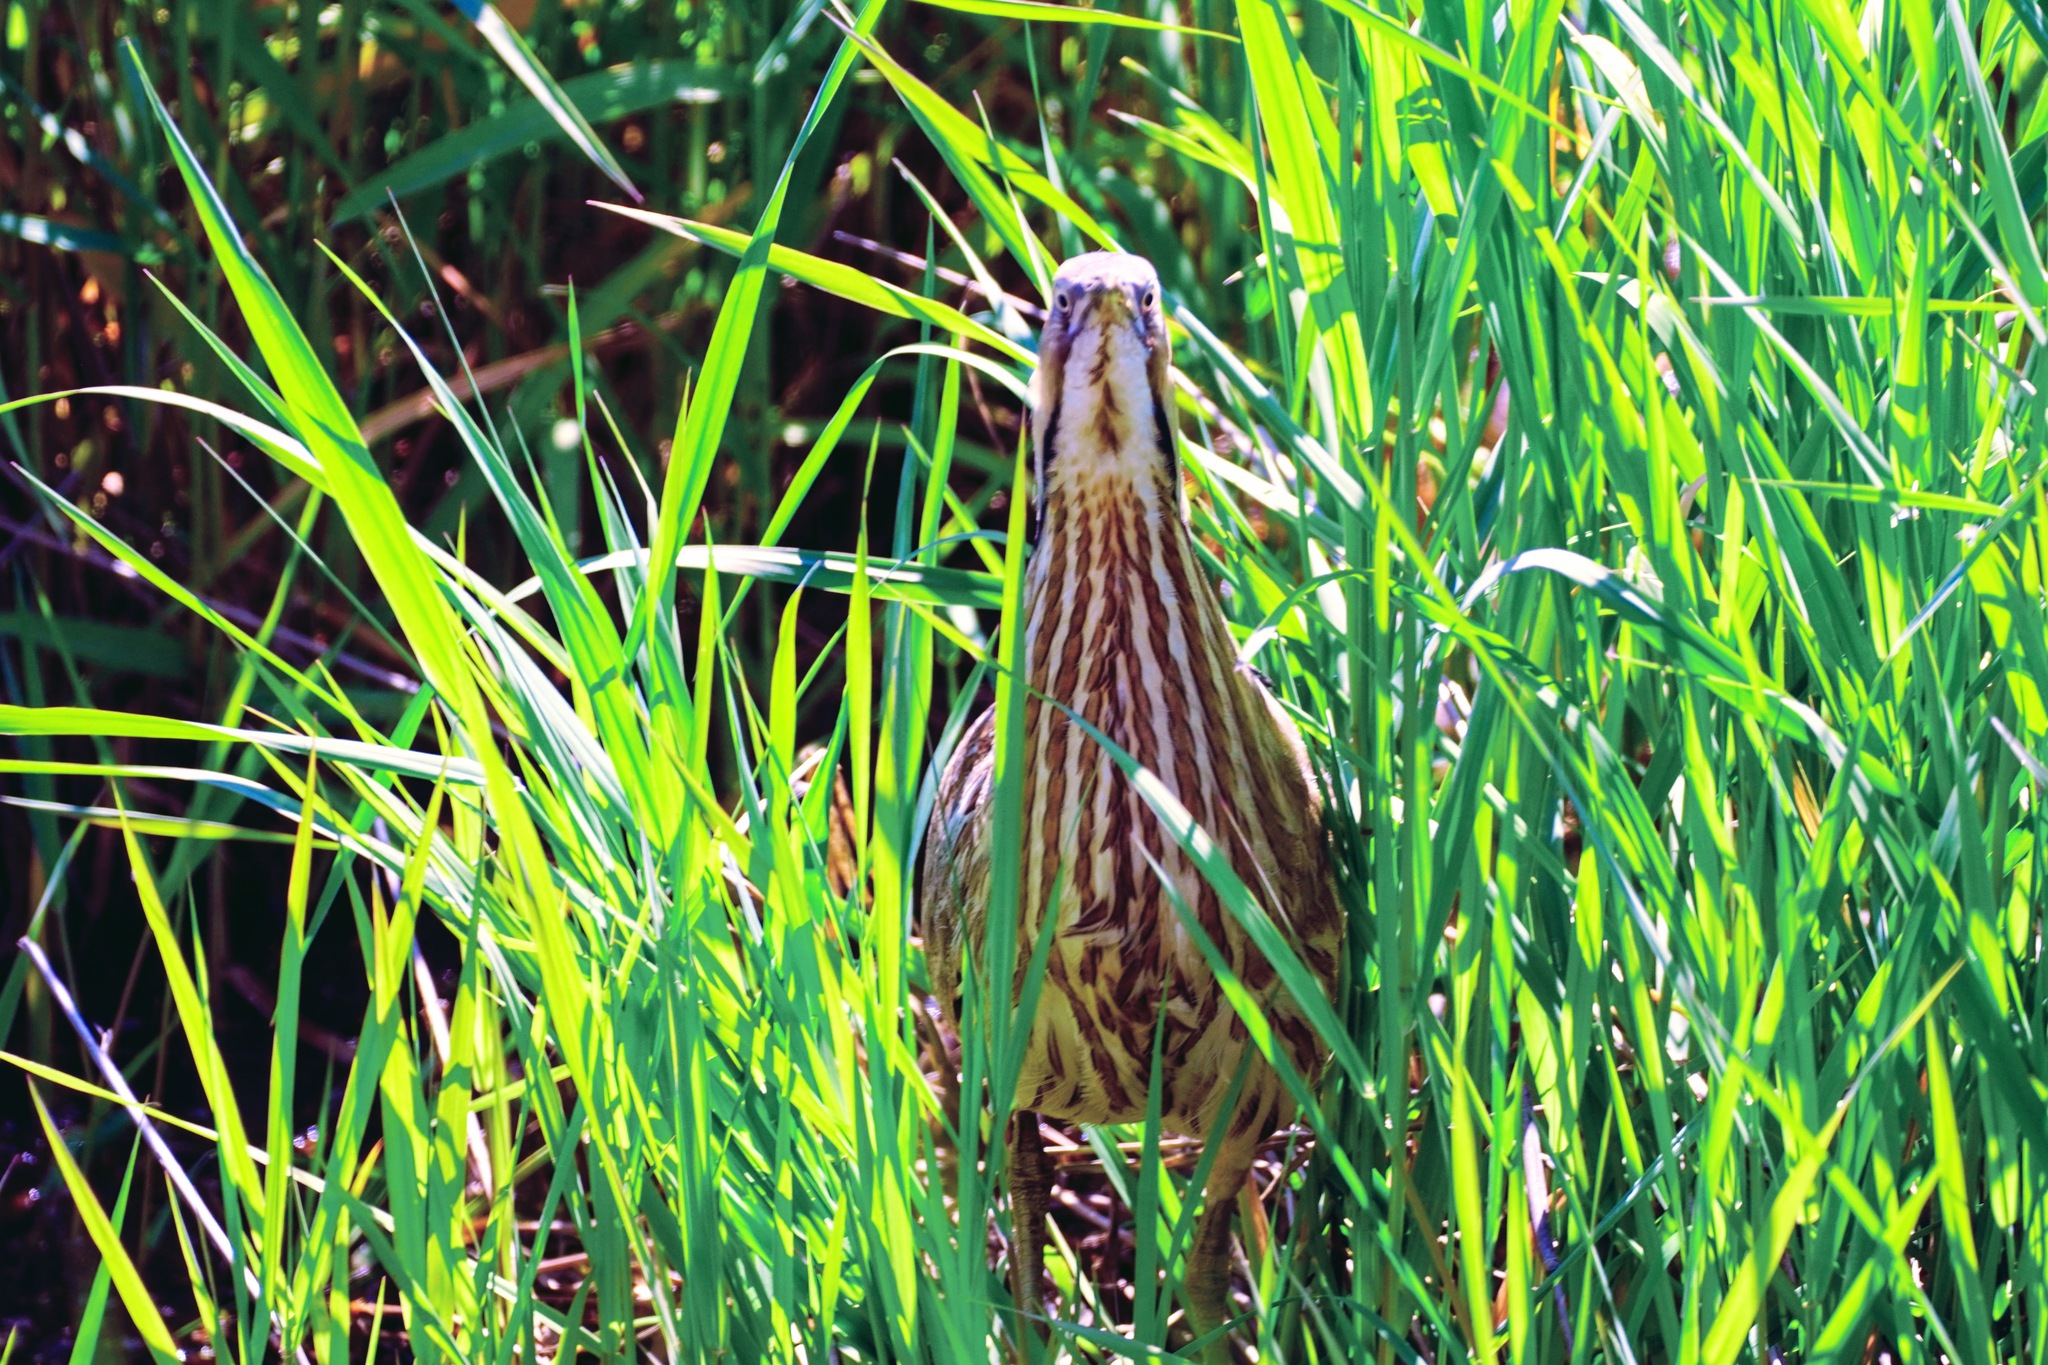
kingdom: Animalia
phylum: Chordata
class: Aves
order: Pelecaniformes
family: Ardeidae
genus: Botaurus
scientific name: Botaurus lentiginosus
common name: American bittern
